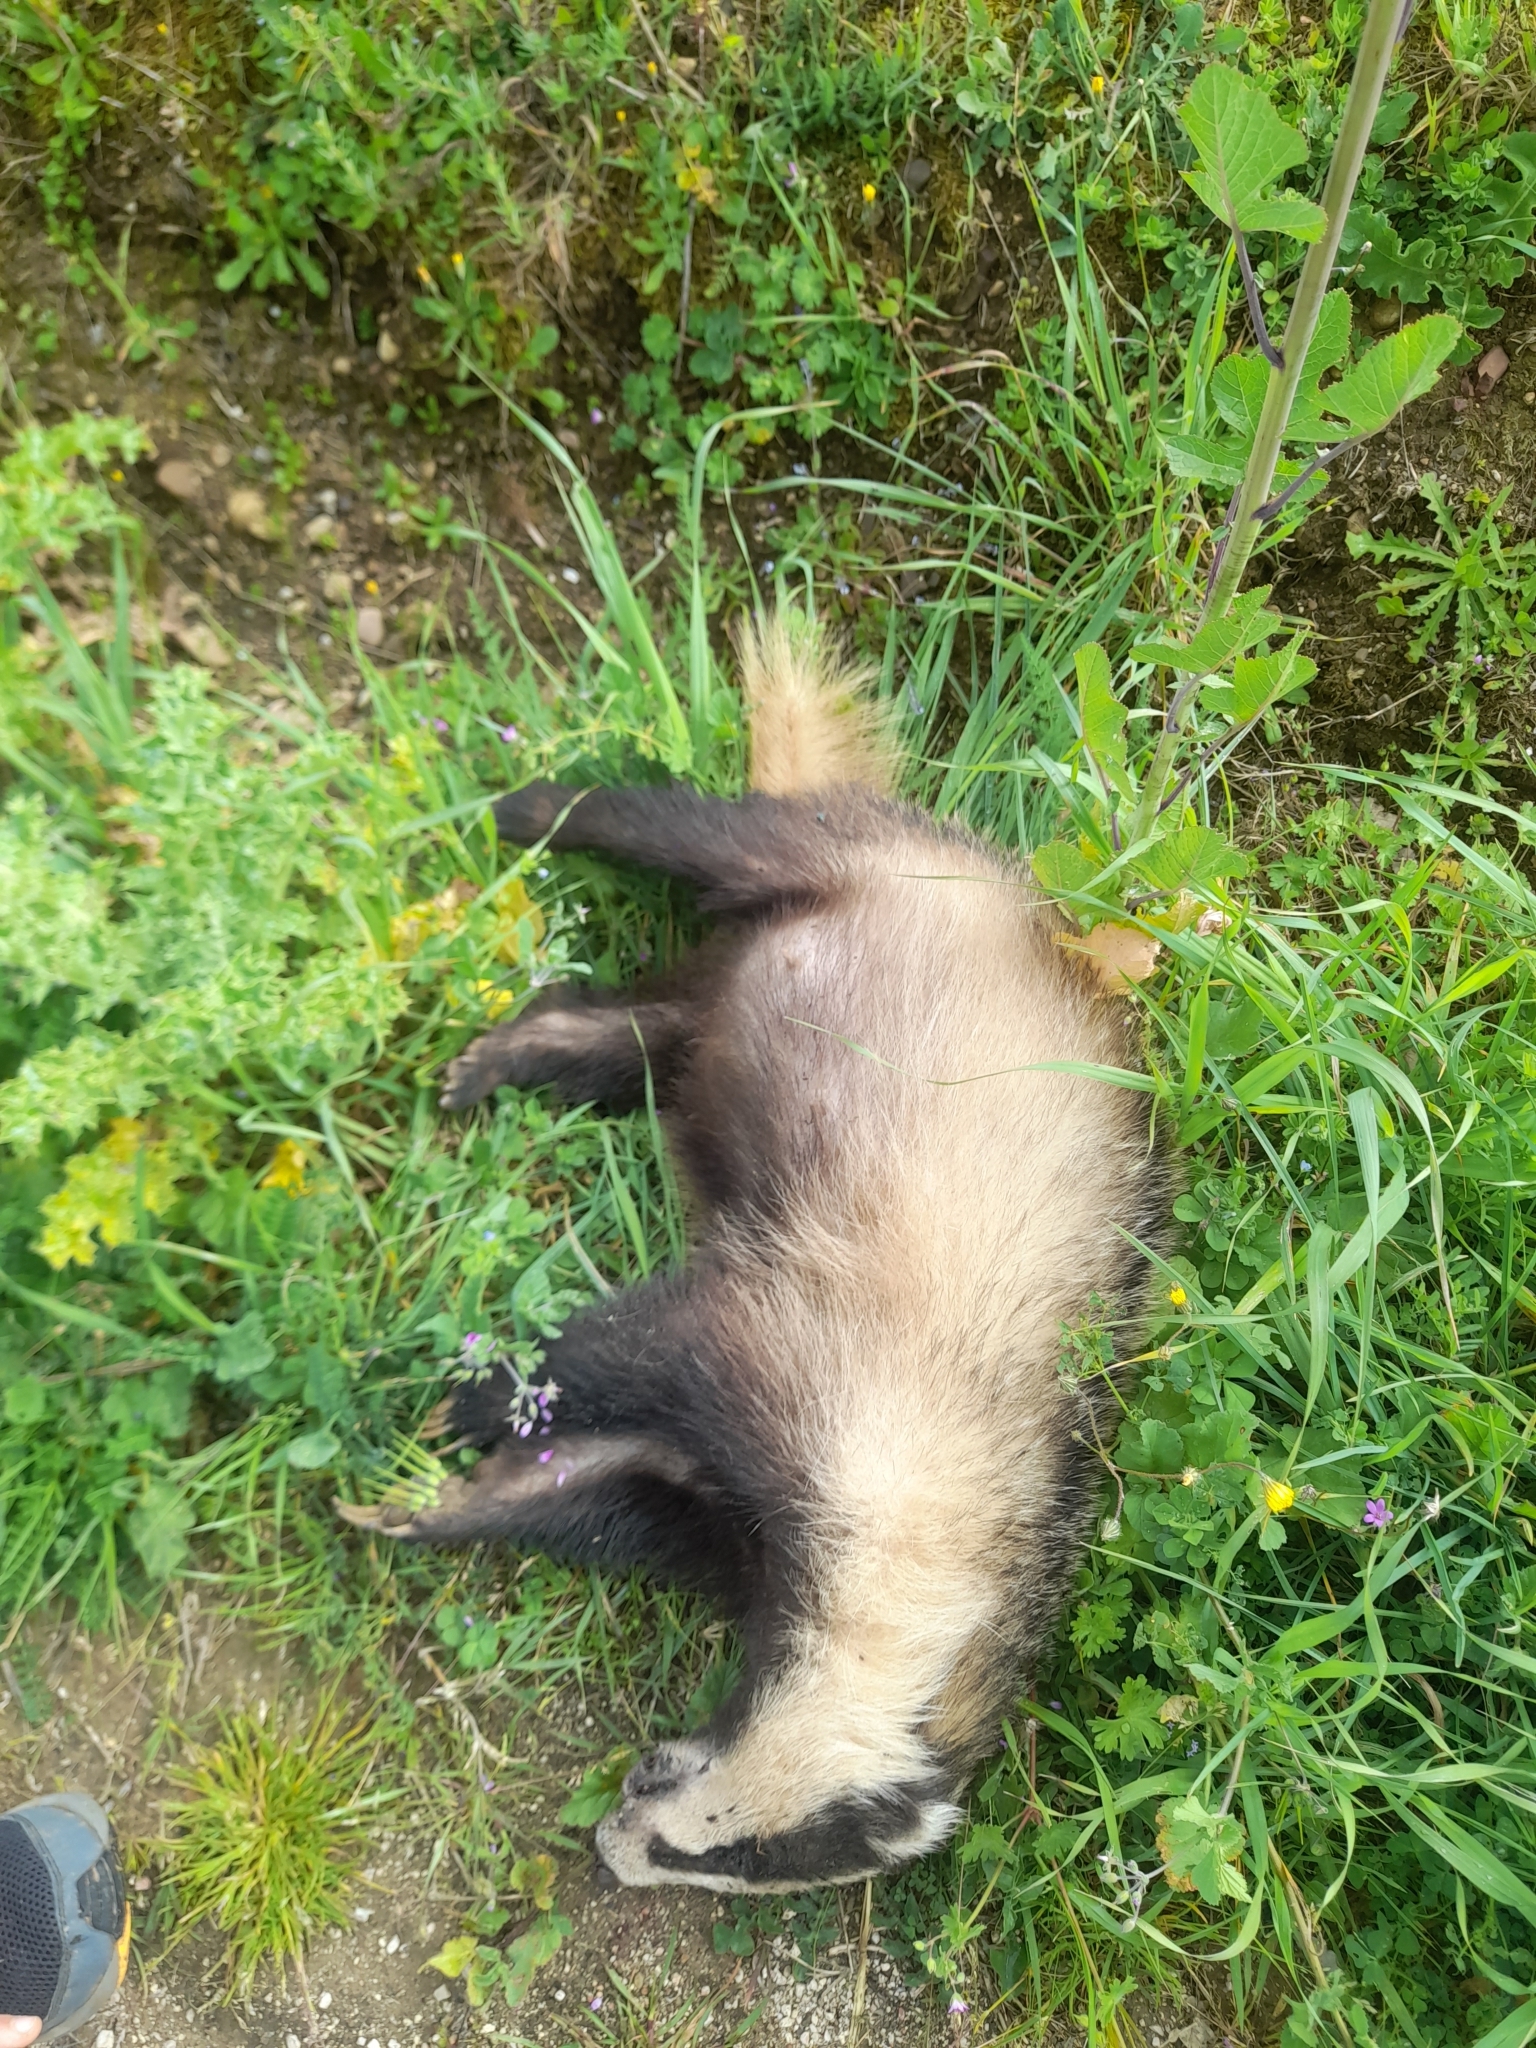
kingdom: Animalia
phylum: Chordata
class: Mammalia
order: Carnivora
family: Mustelidae
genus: Meles
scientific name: Meles meles
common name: Eurasian badger
